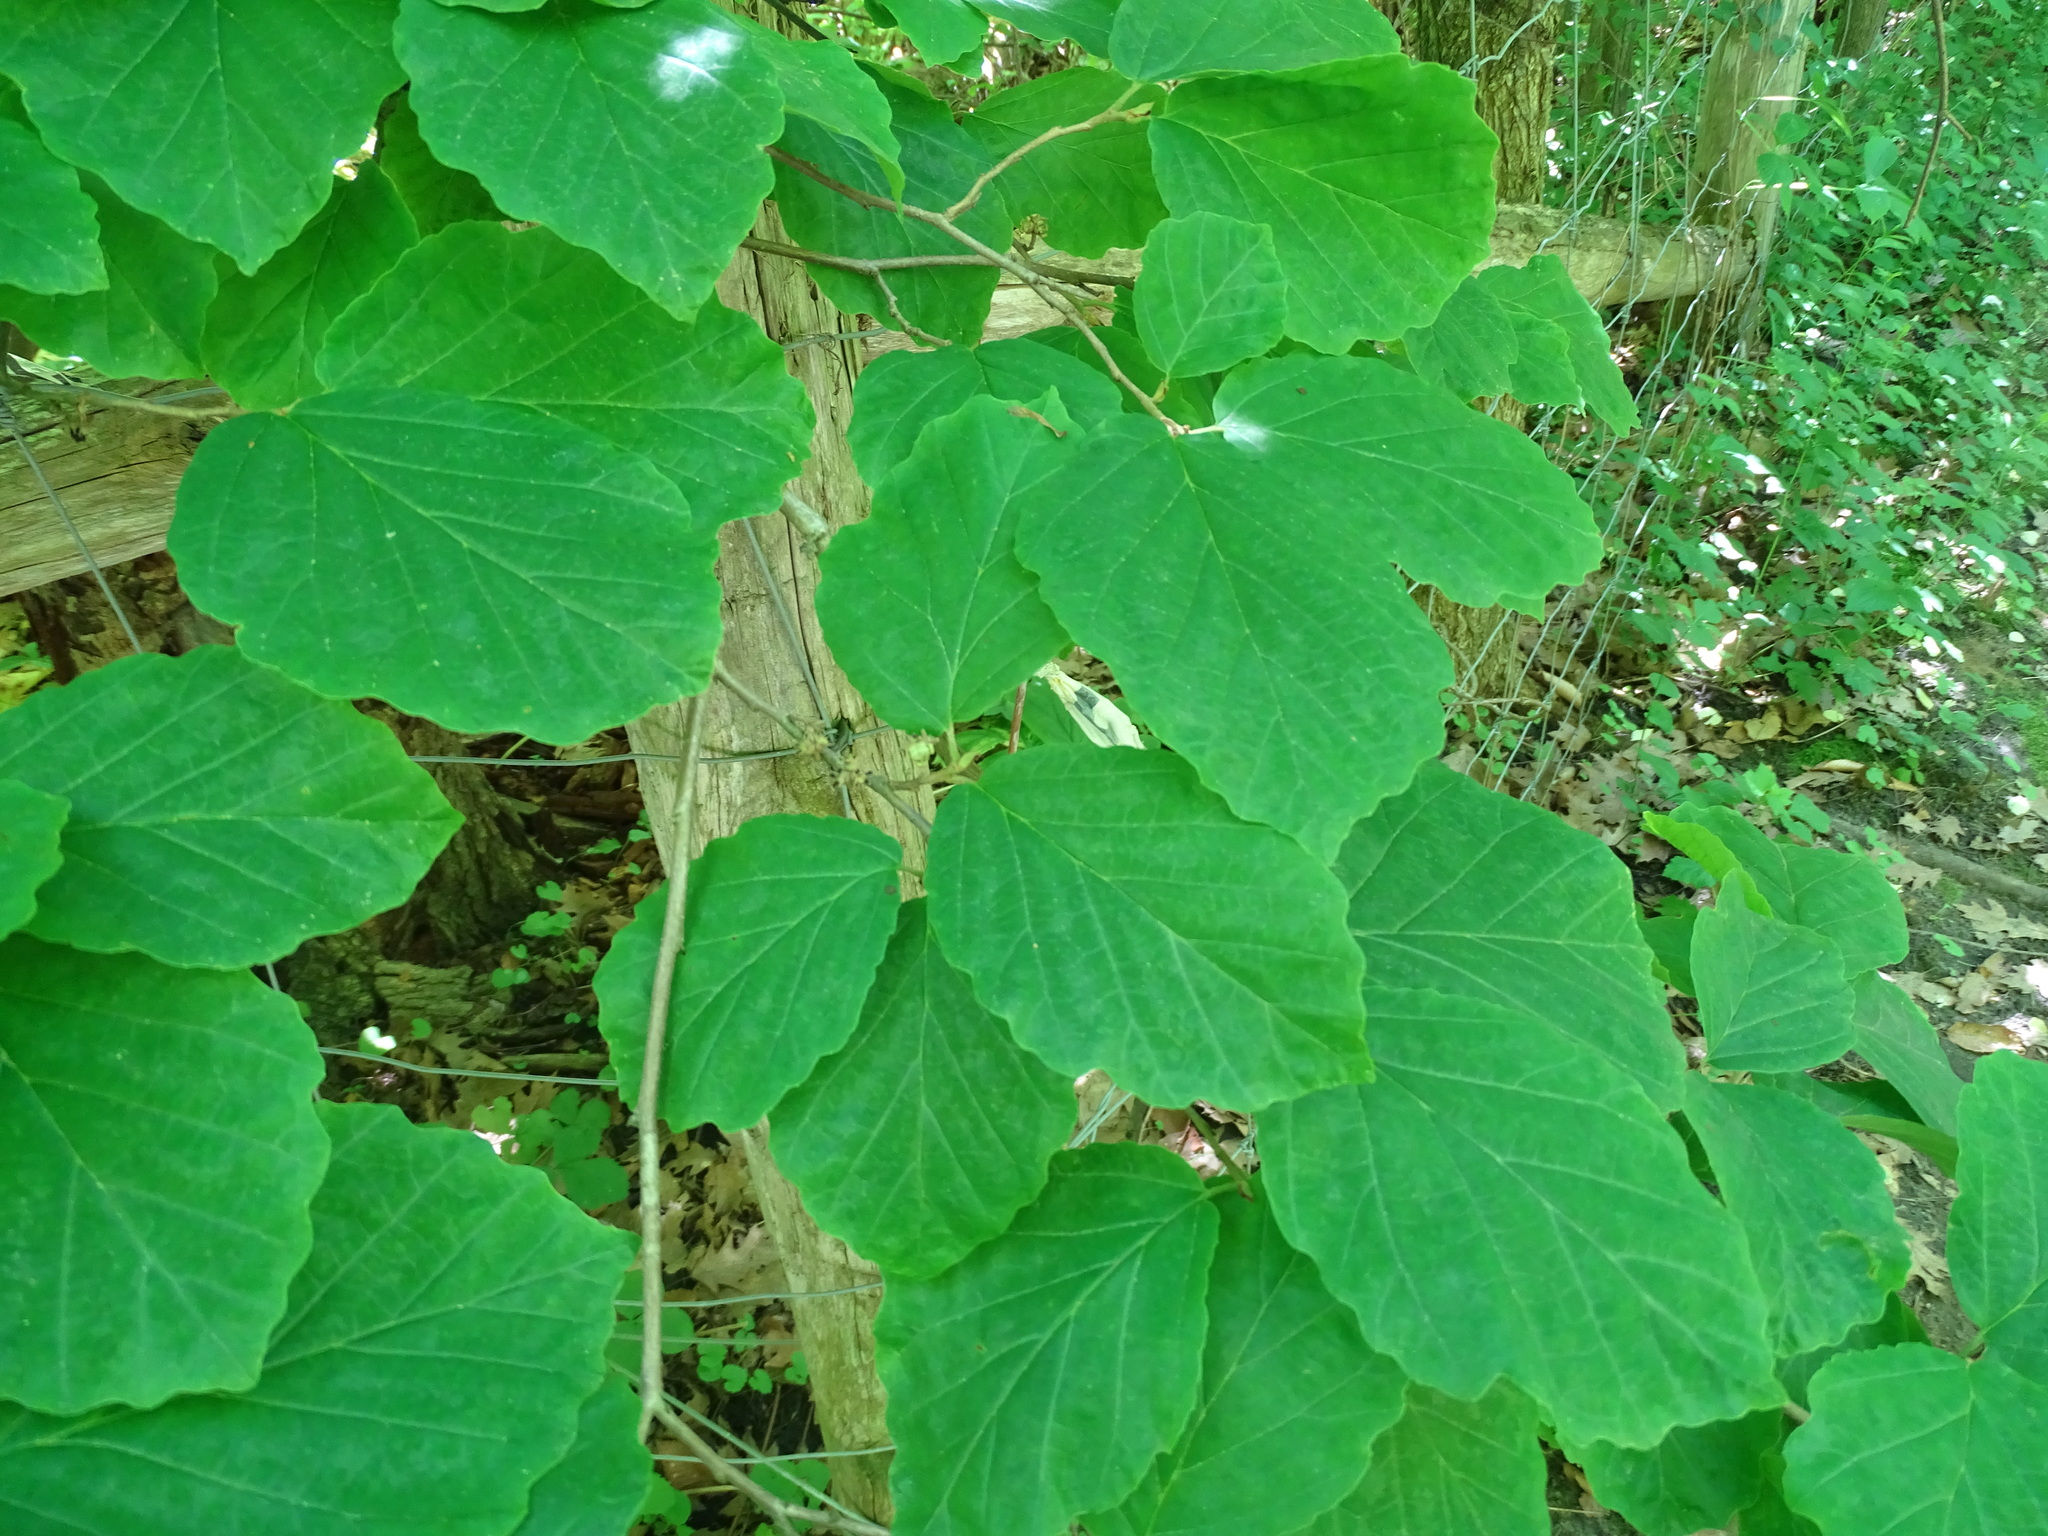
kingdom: Plantae
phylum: Tracheophyta
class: Magnoliopsida
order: Saxifragales
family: Hamamelidaceae
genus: Hamamelis
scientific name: Hamamelis virginiana
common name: Witch-hazel
